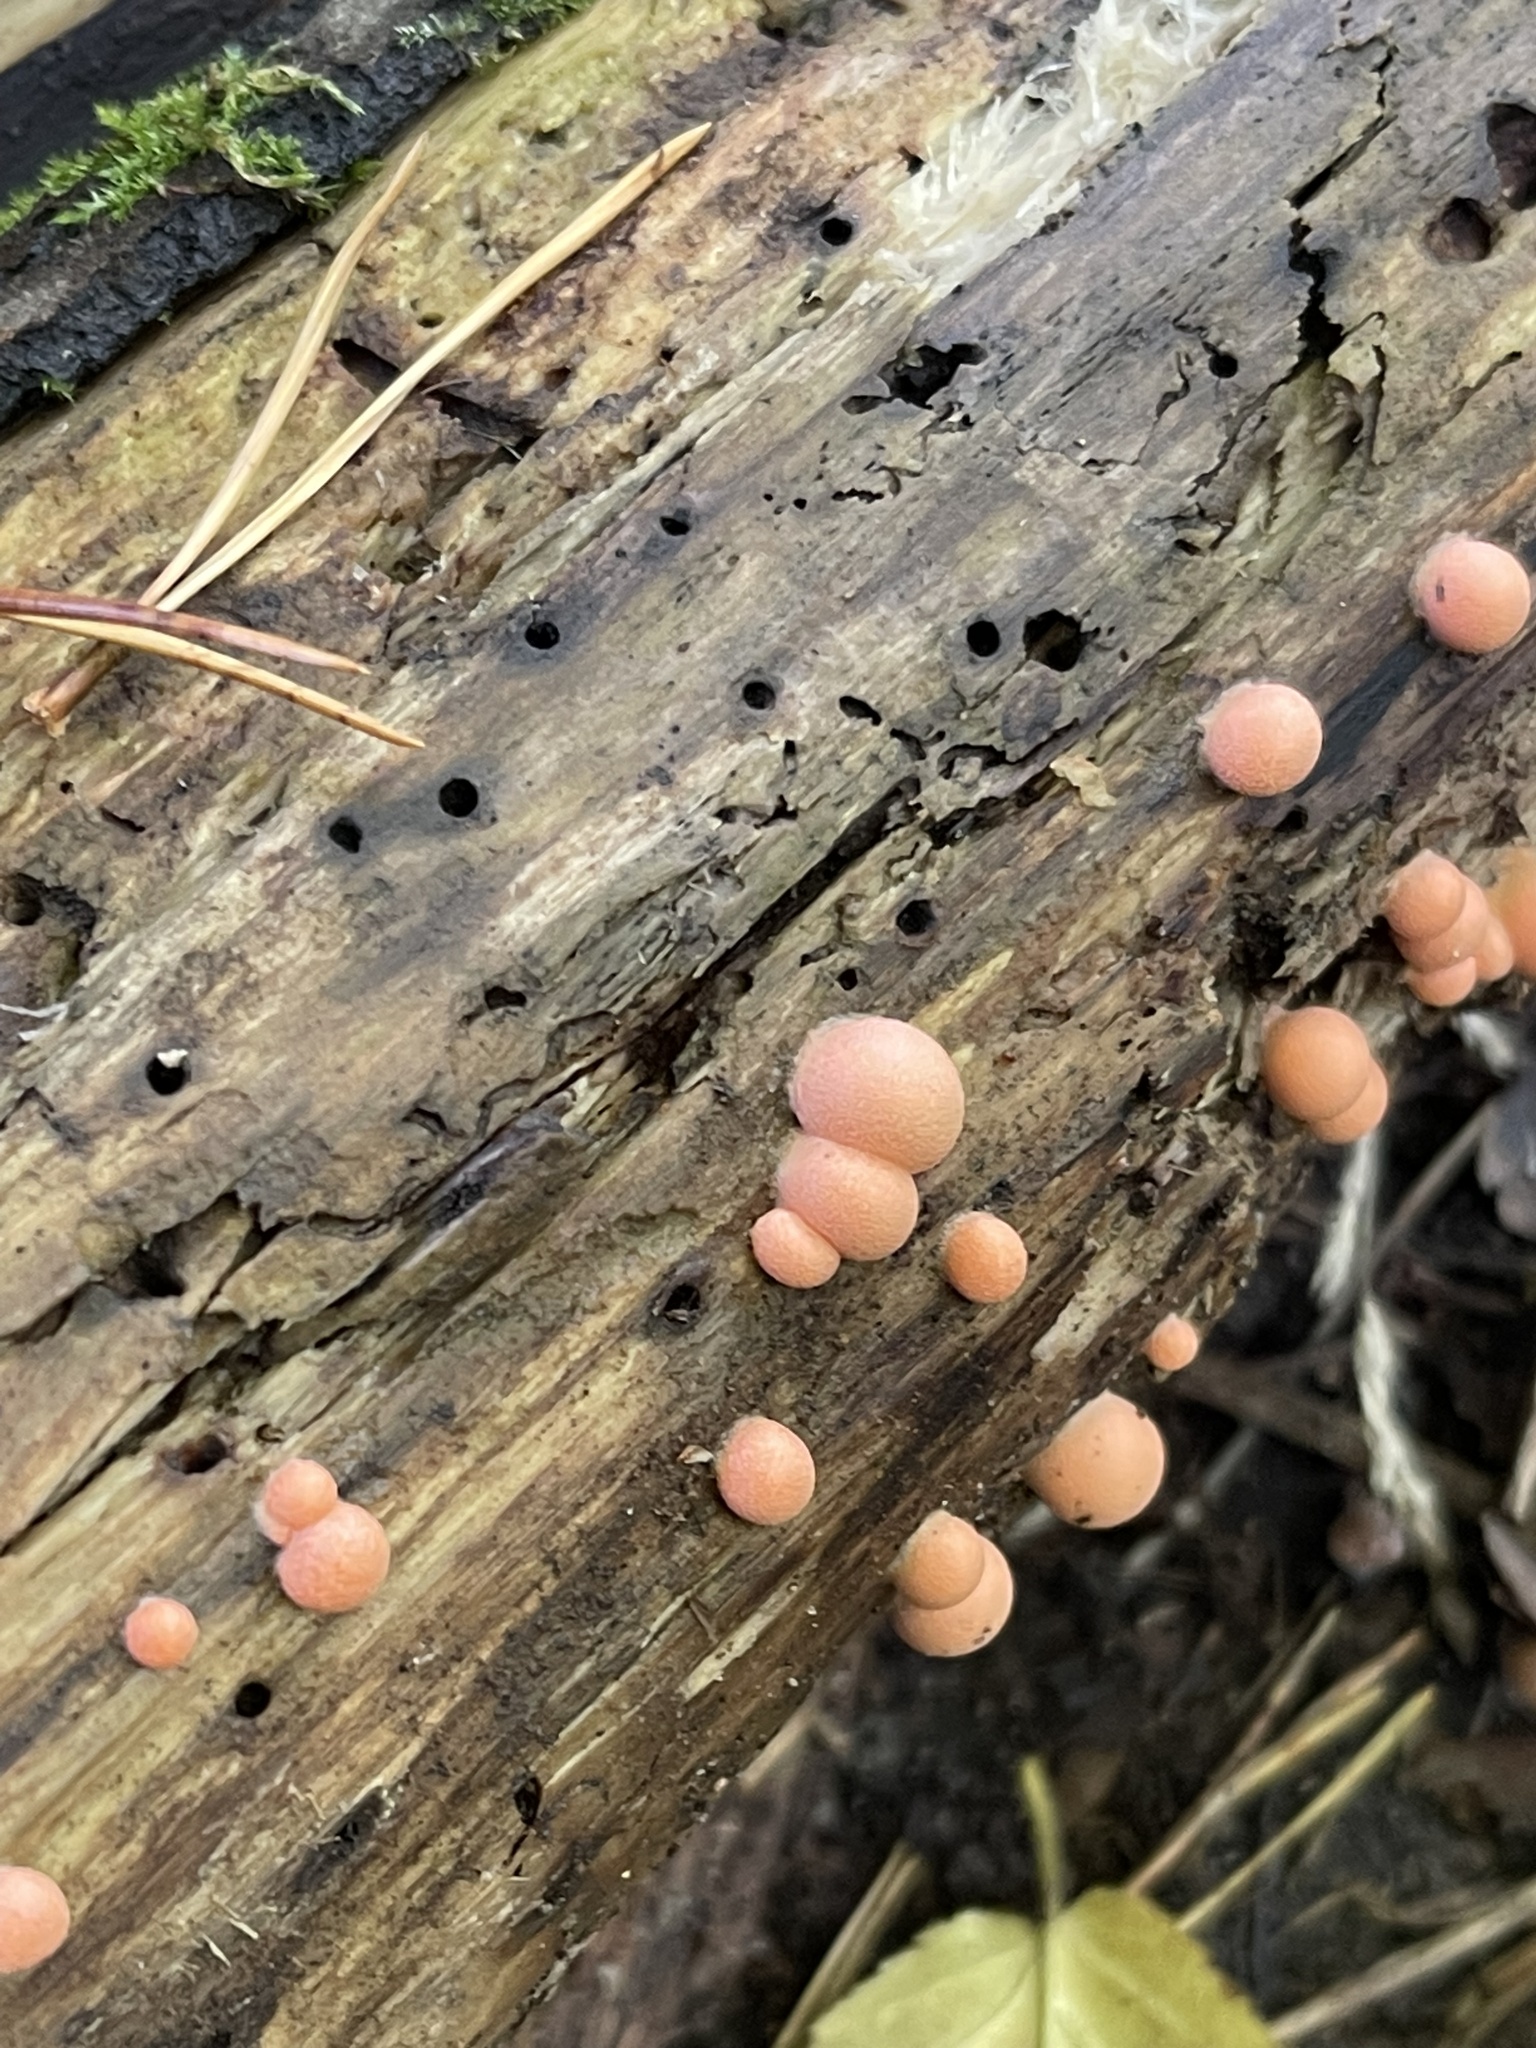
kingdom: Protozoa
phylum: Mycetozoa
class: Myxomycetes
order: Cribrariales
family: Tubiferaceae
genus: Lycogala
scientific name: Lycogala epidendrum
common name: Wolf's milk
